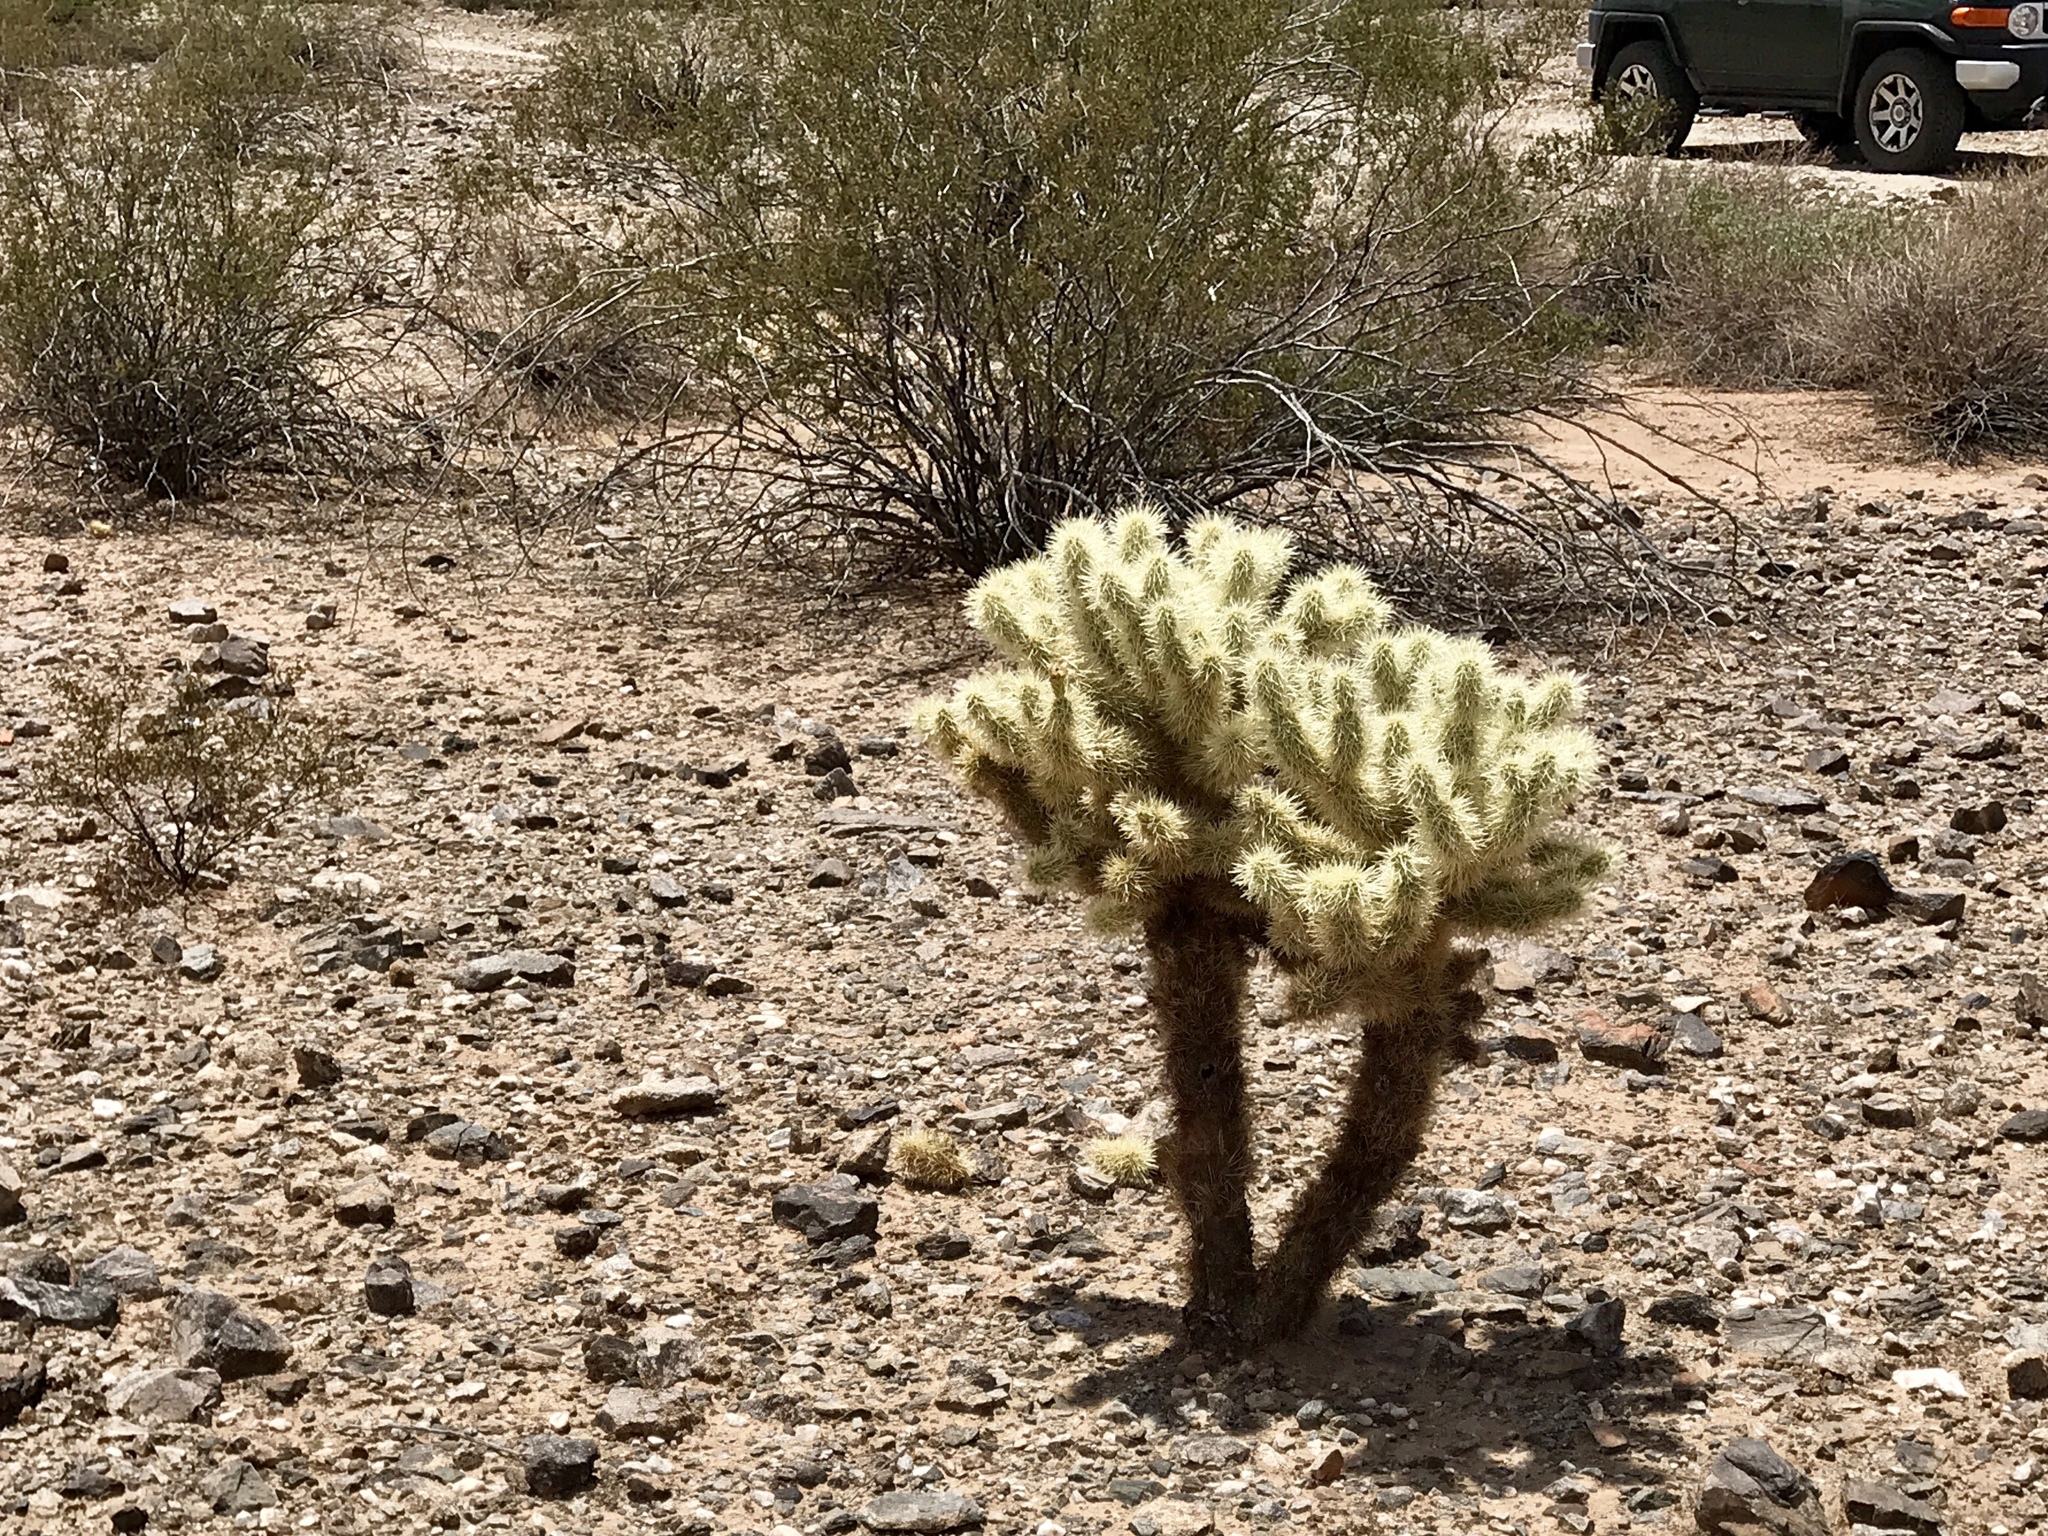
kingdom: Plantae
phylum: Tracheophyta
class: Magnoliopsida
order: Caryophyllales
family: Cactaceae
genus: Cylindropuntia
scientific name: Cylindropuntia fosbergii
